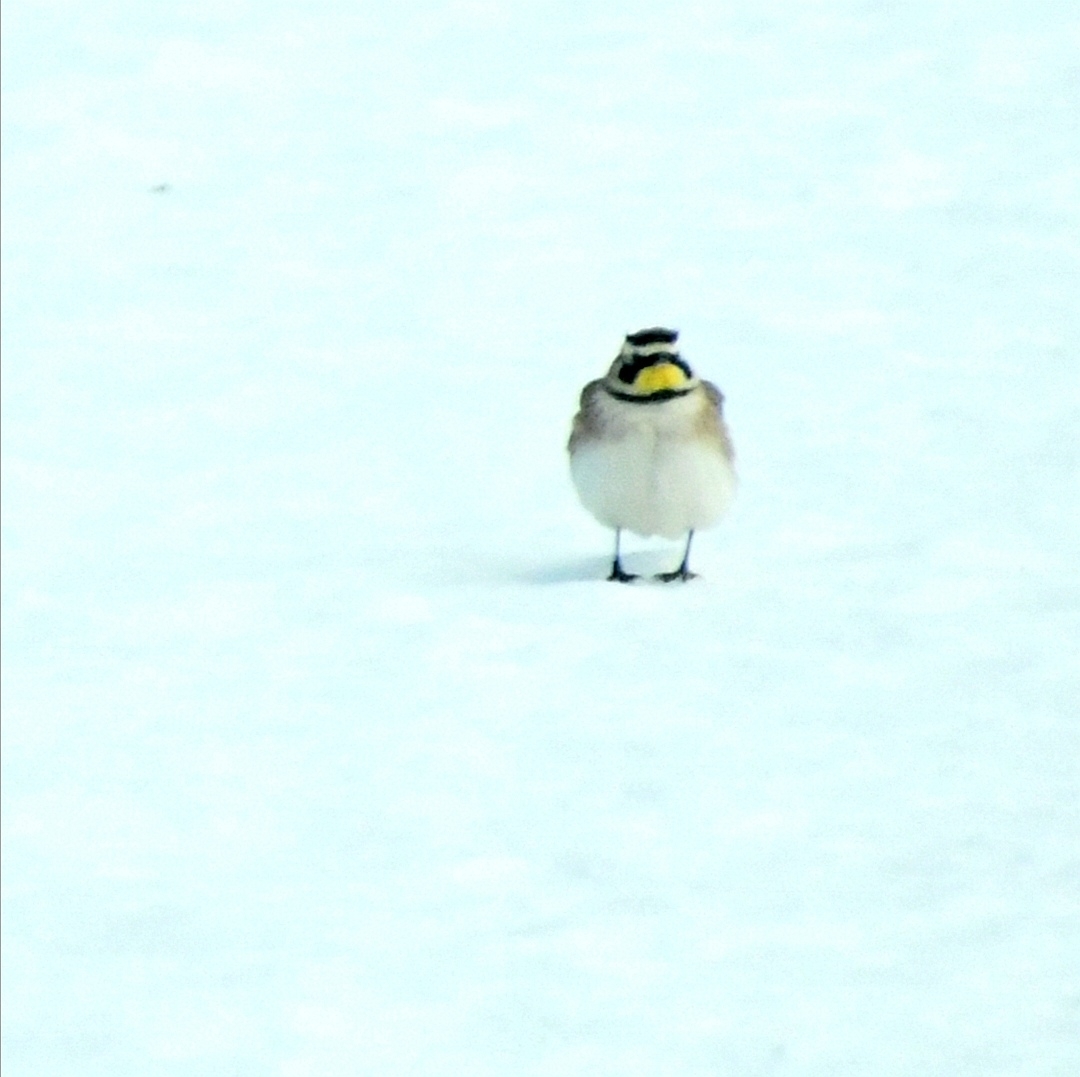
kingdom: Animalia
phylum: Chordata
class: Aves
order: Passeriformes
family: Alaudidae
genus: Eremophila
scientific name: Eremophila alpestris
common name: Horned lark
